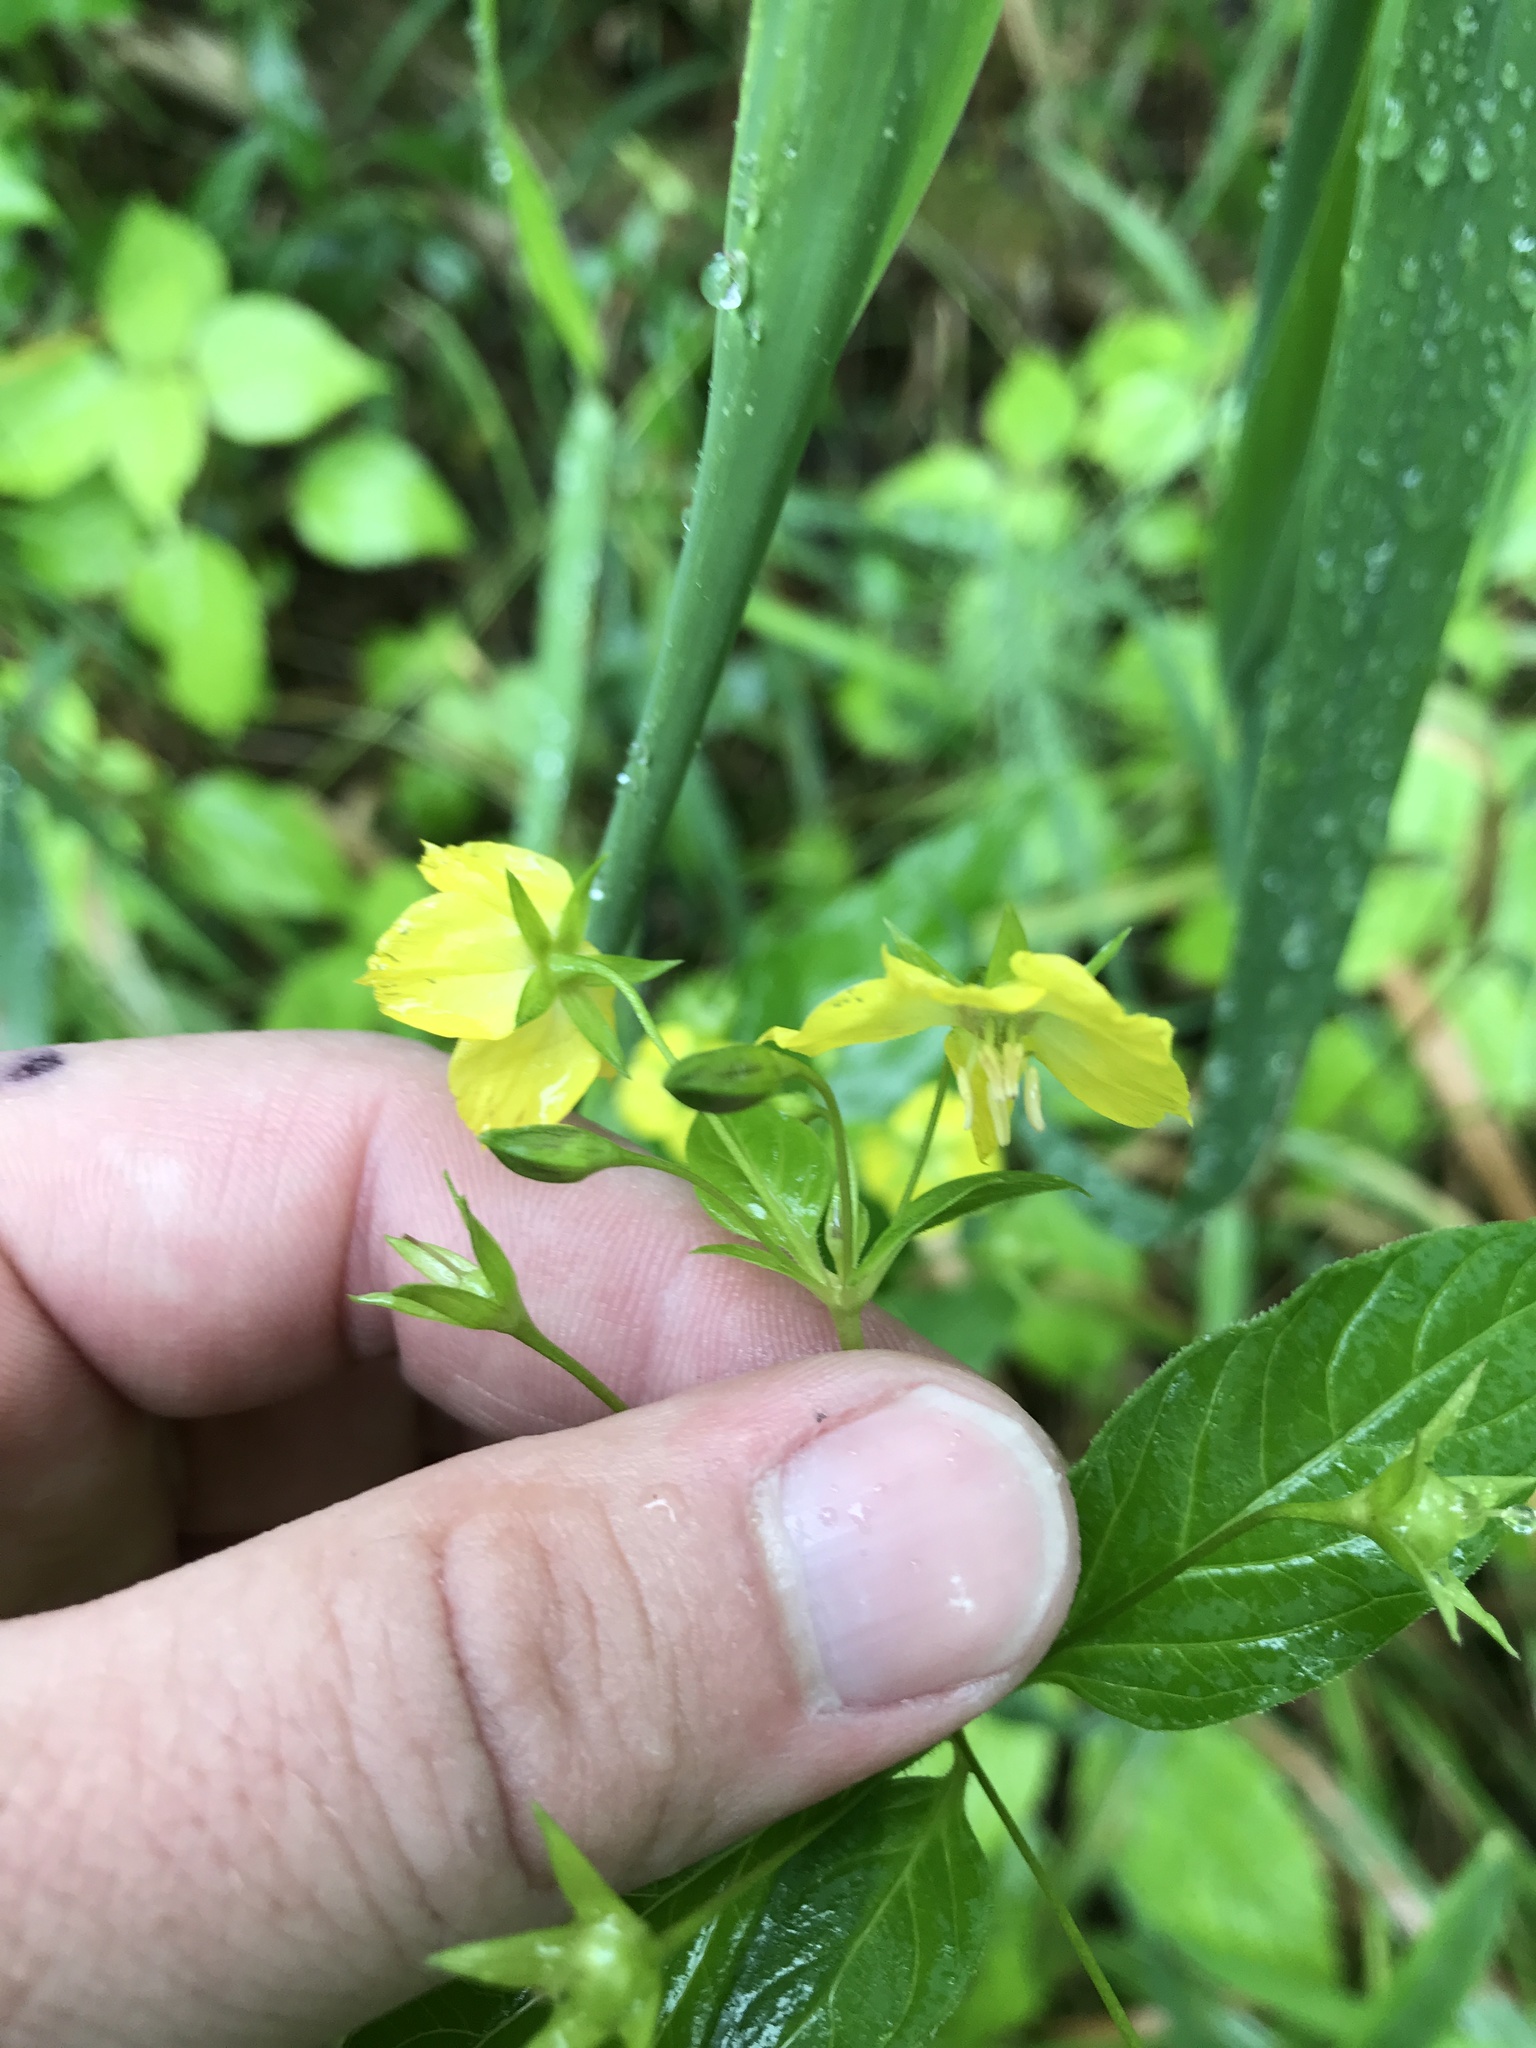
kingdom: Plantae
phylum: Tracheophyta
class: Magnoliopsida
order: Ericales
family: Primulaceae
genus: Lysimachia
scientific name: Lysimachia ciliata
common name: Fringed loosestrife
